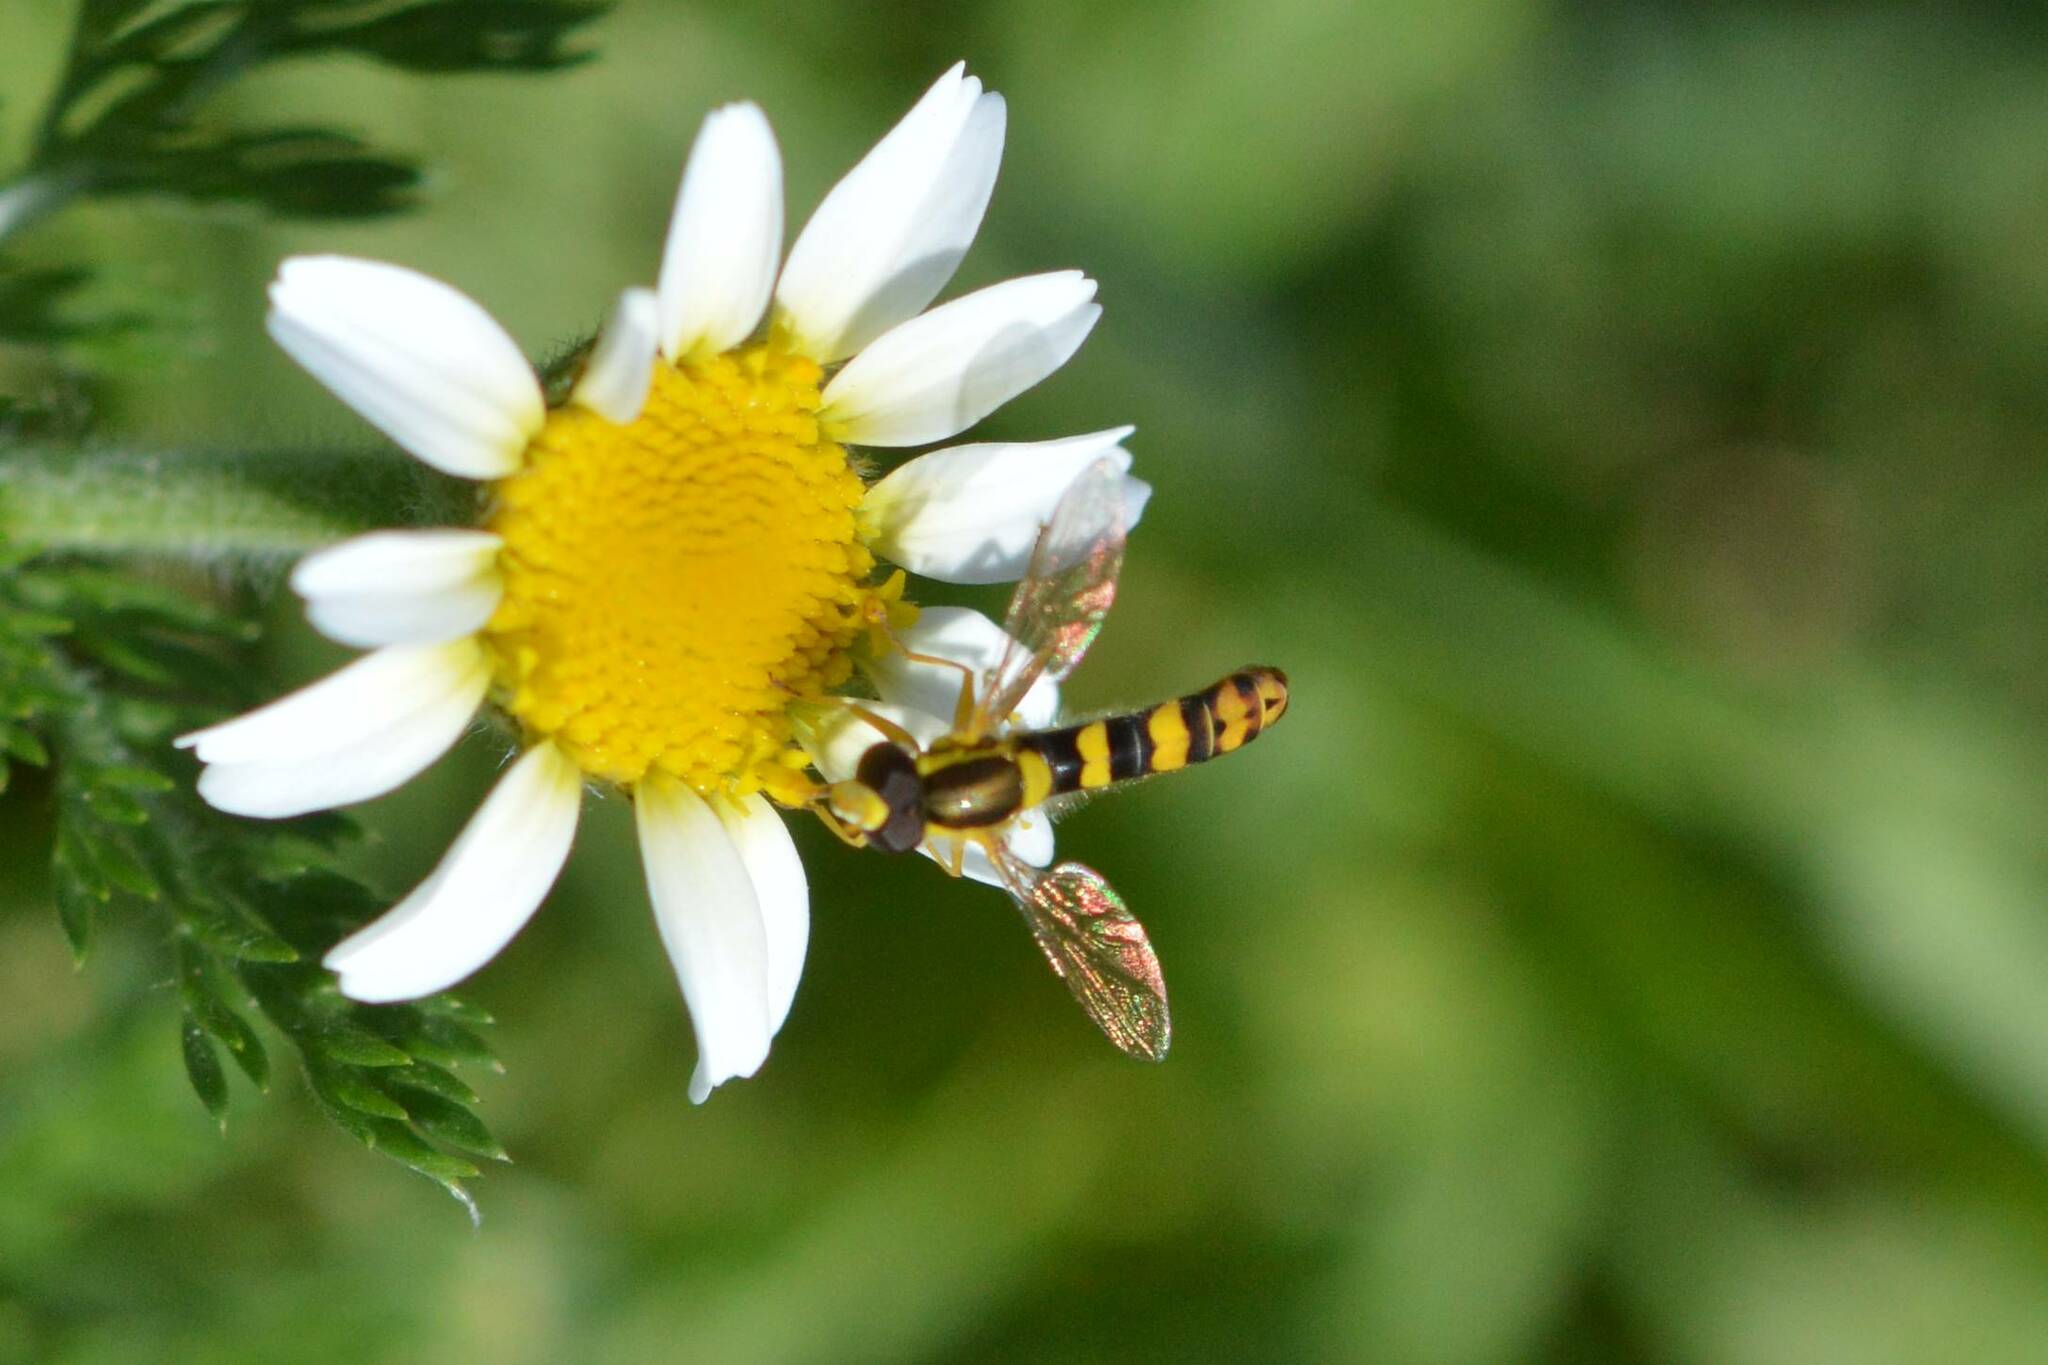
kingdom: Animalia
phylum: Arthropoda
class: Insecta
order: Diptera
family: Syrphidae
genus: Sphaerophoria
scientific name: Sphaerophoria scripta
